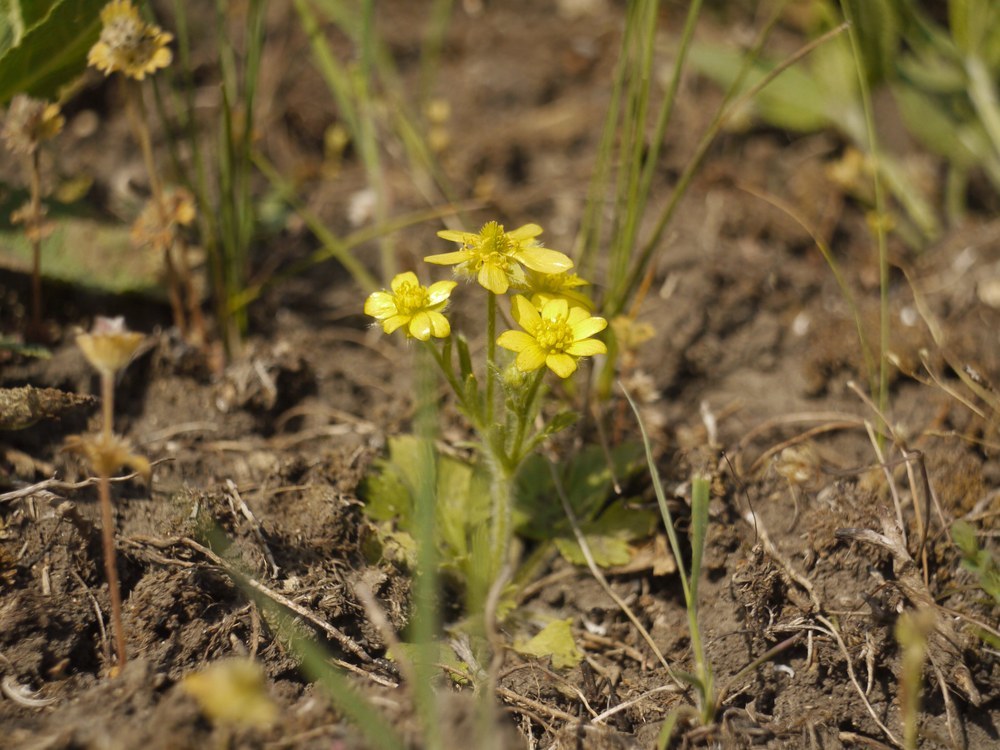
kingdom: Plantae
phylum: Tracheophyta
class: Magnoliopsida
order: Ranunculales
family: Ranunculaceae
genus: Ranunculus
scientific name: Ranunculus oxyspermus
